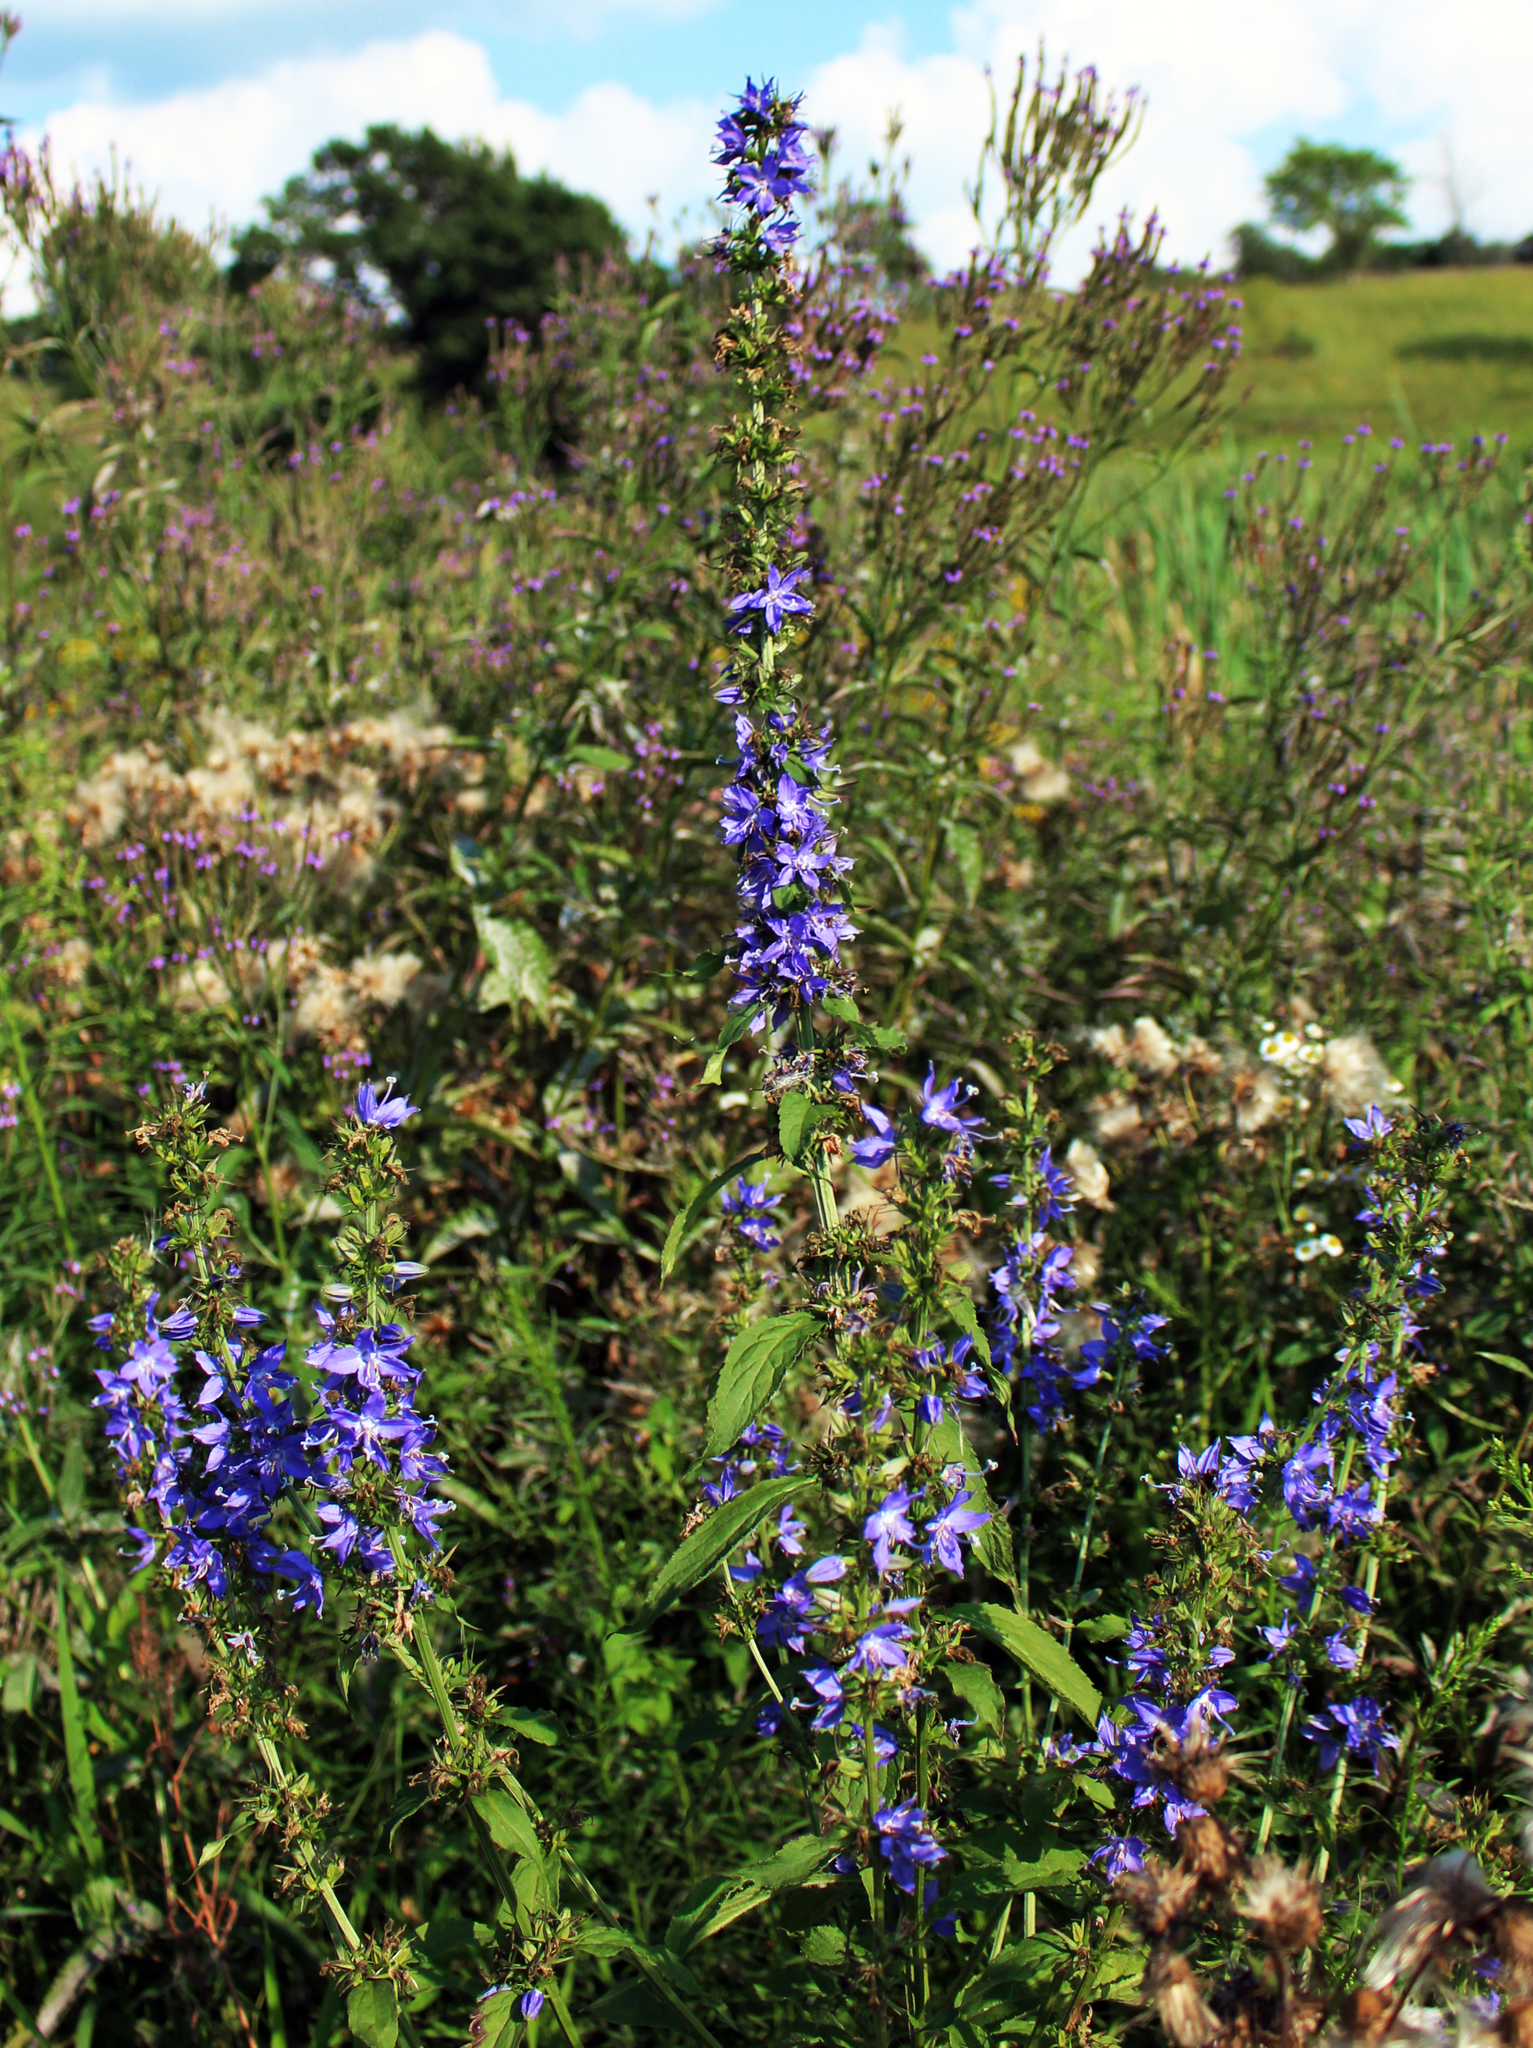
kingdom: Plantae
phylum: Tracheophyta
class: Magnoliopsida
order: Asterales
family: Campanulaceae
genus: Campanulastrum
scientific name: Campanulastrum americanum
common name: American bellflower
